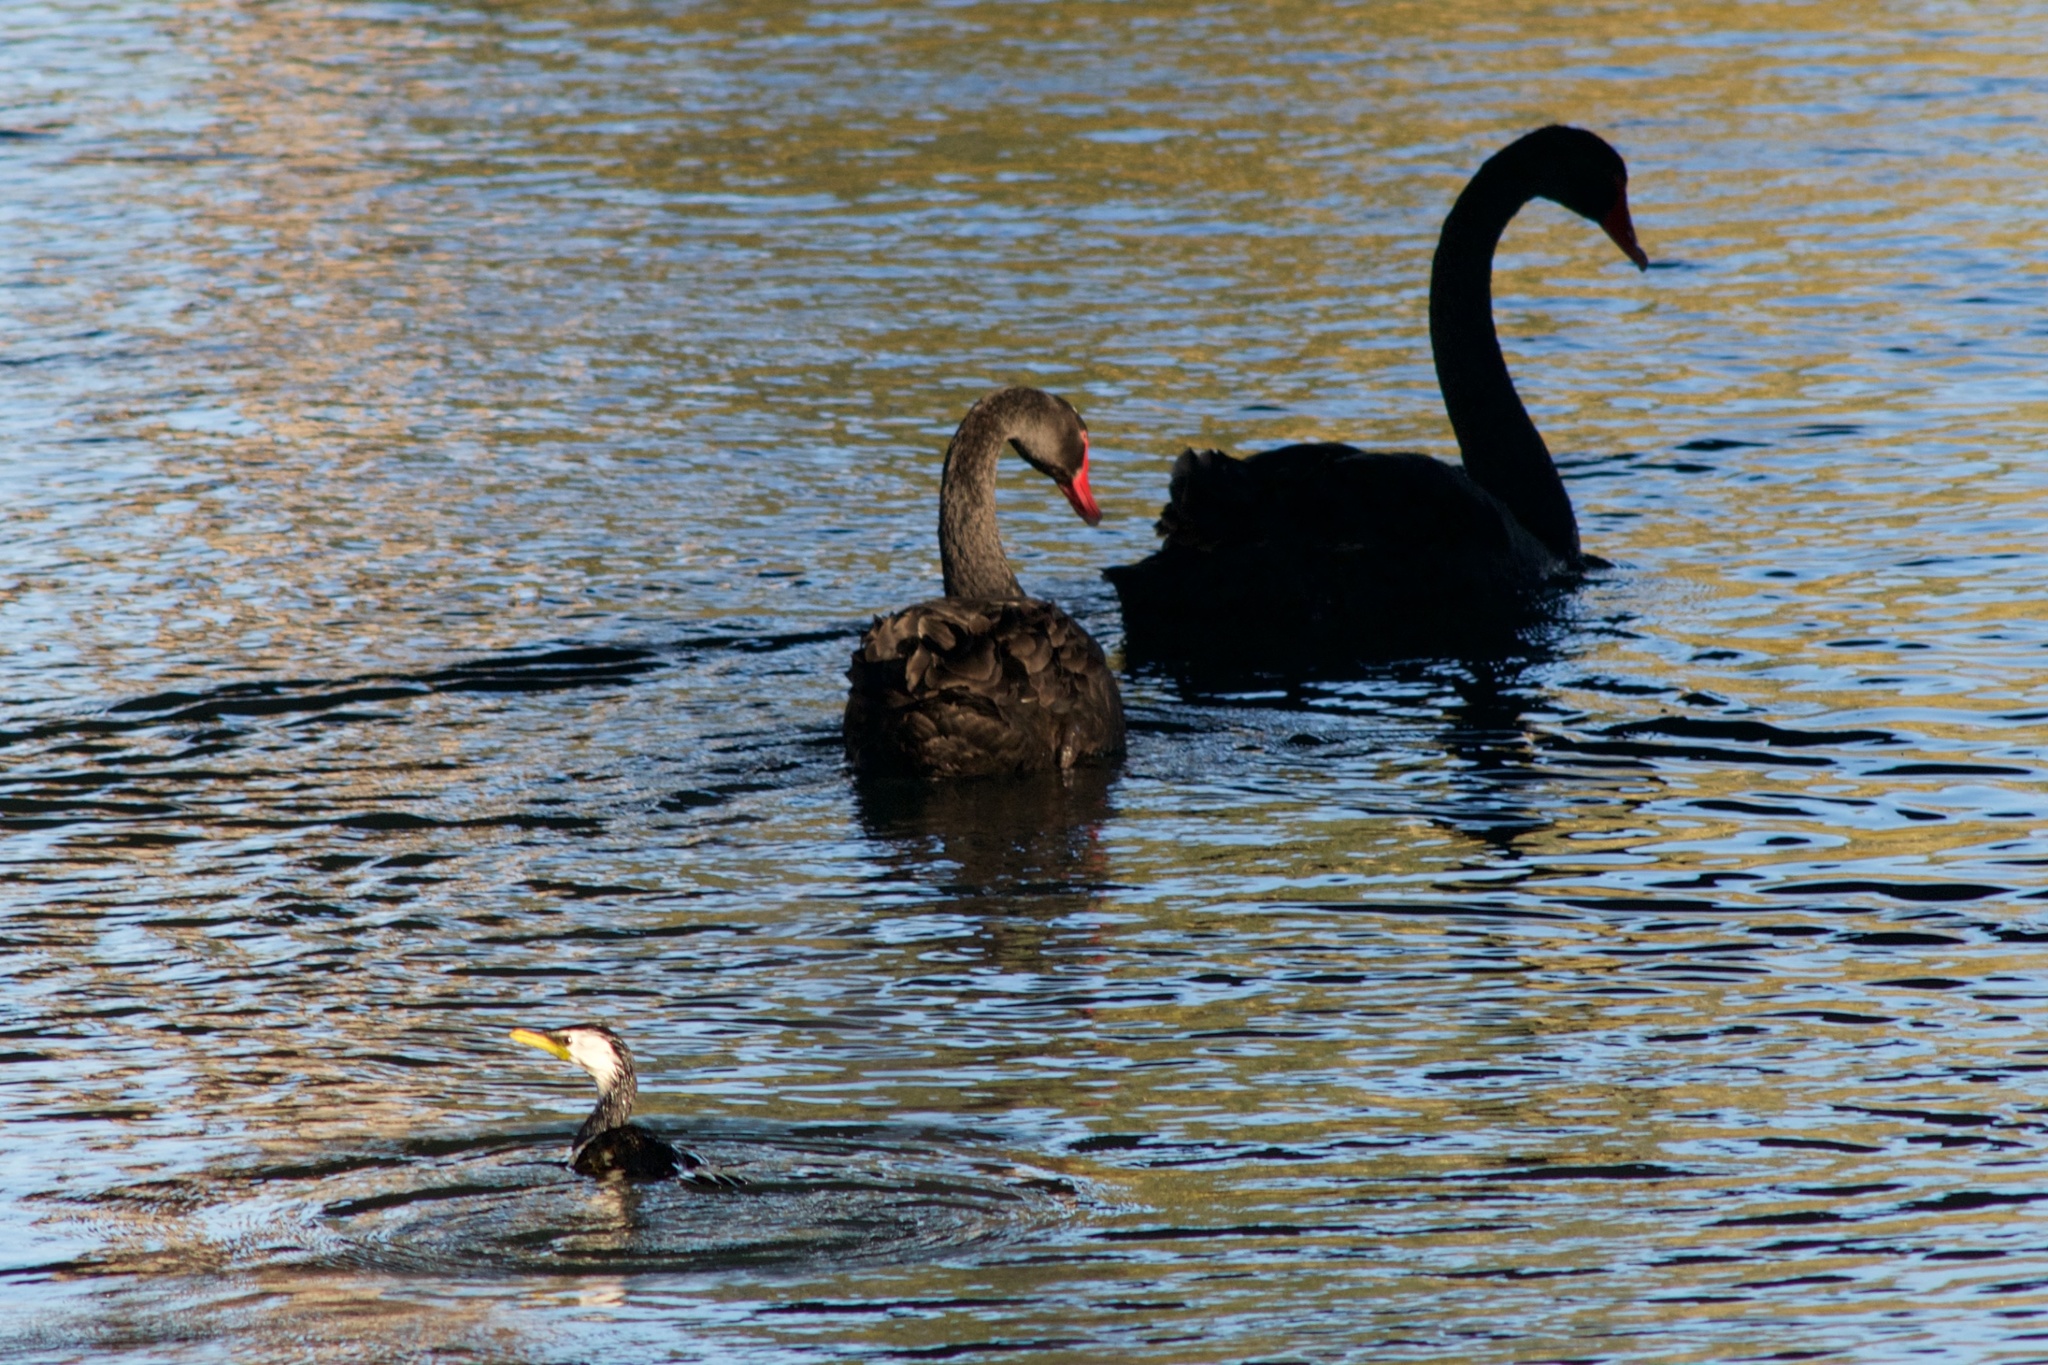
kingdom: Animalia
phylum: Chordata
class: Aves
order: Suliformes
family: Phalacrocoracidae
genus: Microcarbo
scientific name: Microcarbo melanoleucos
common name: Little pied cormorant
